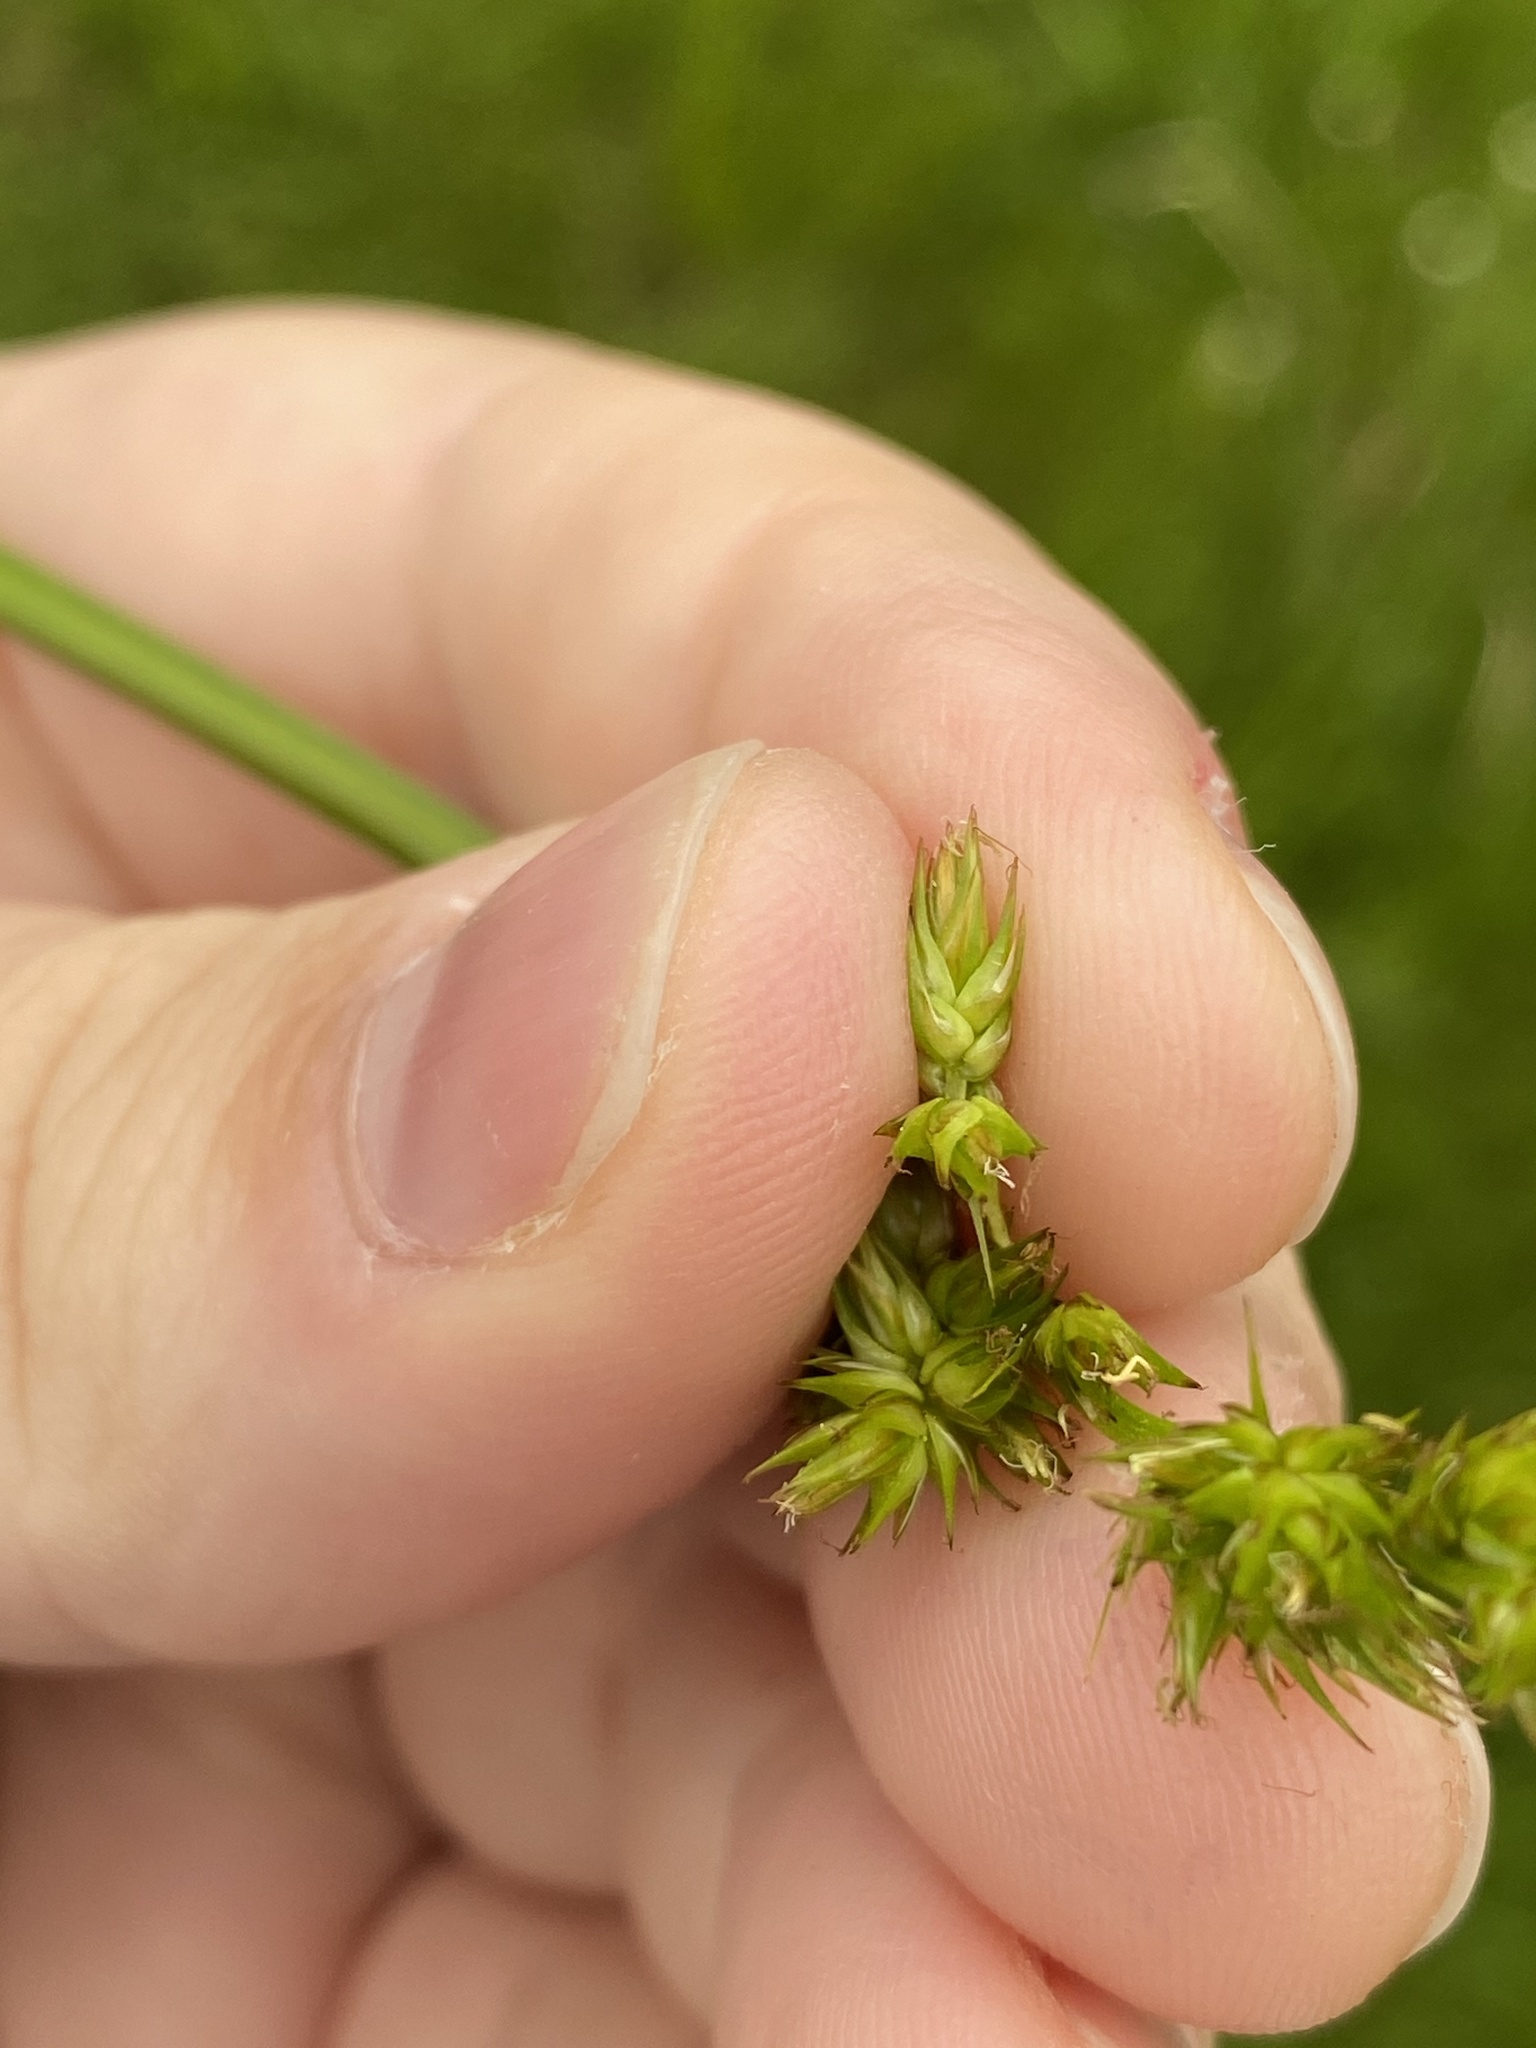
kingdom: Plantae
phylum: Tracheophyta
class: Liliopsida
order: Poales
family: Cyperaceae
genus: Carex
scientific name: Carex stipata
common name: Awl-fruited sedge
